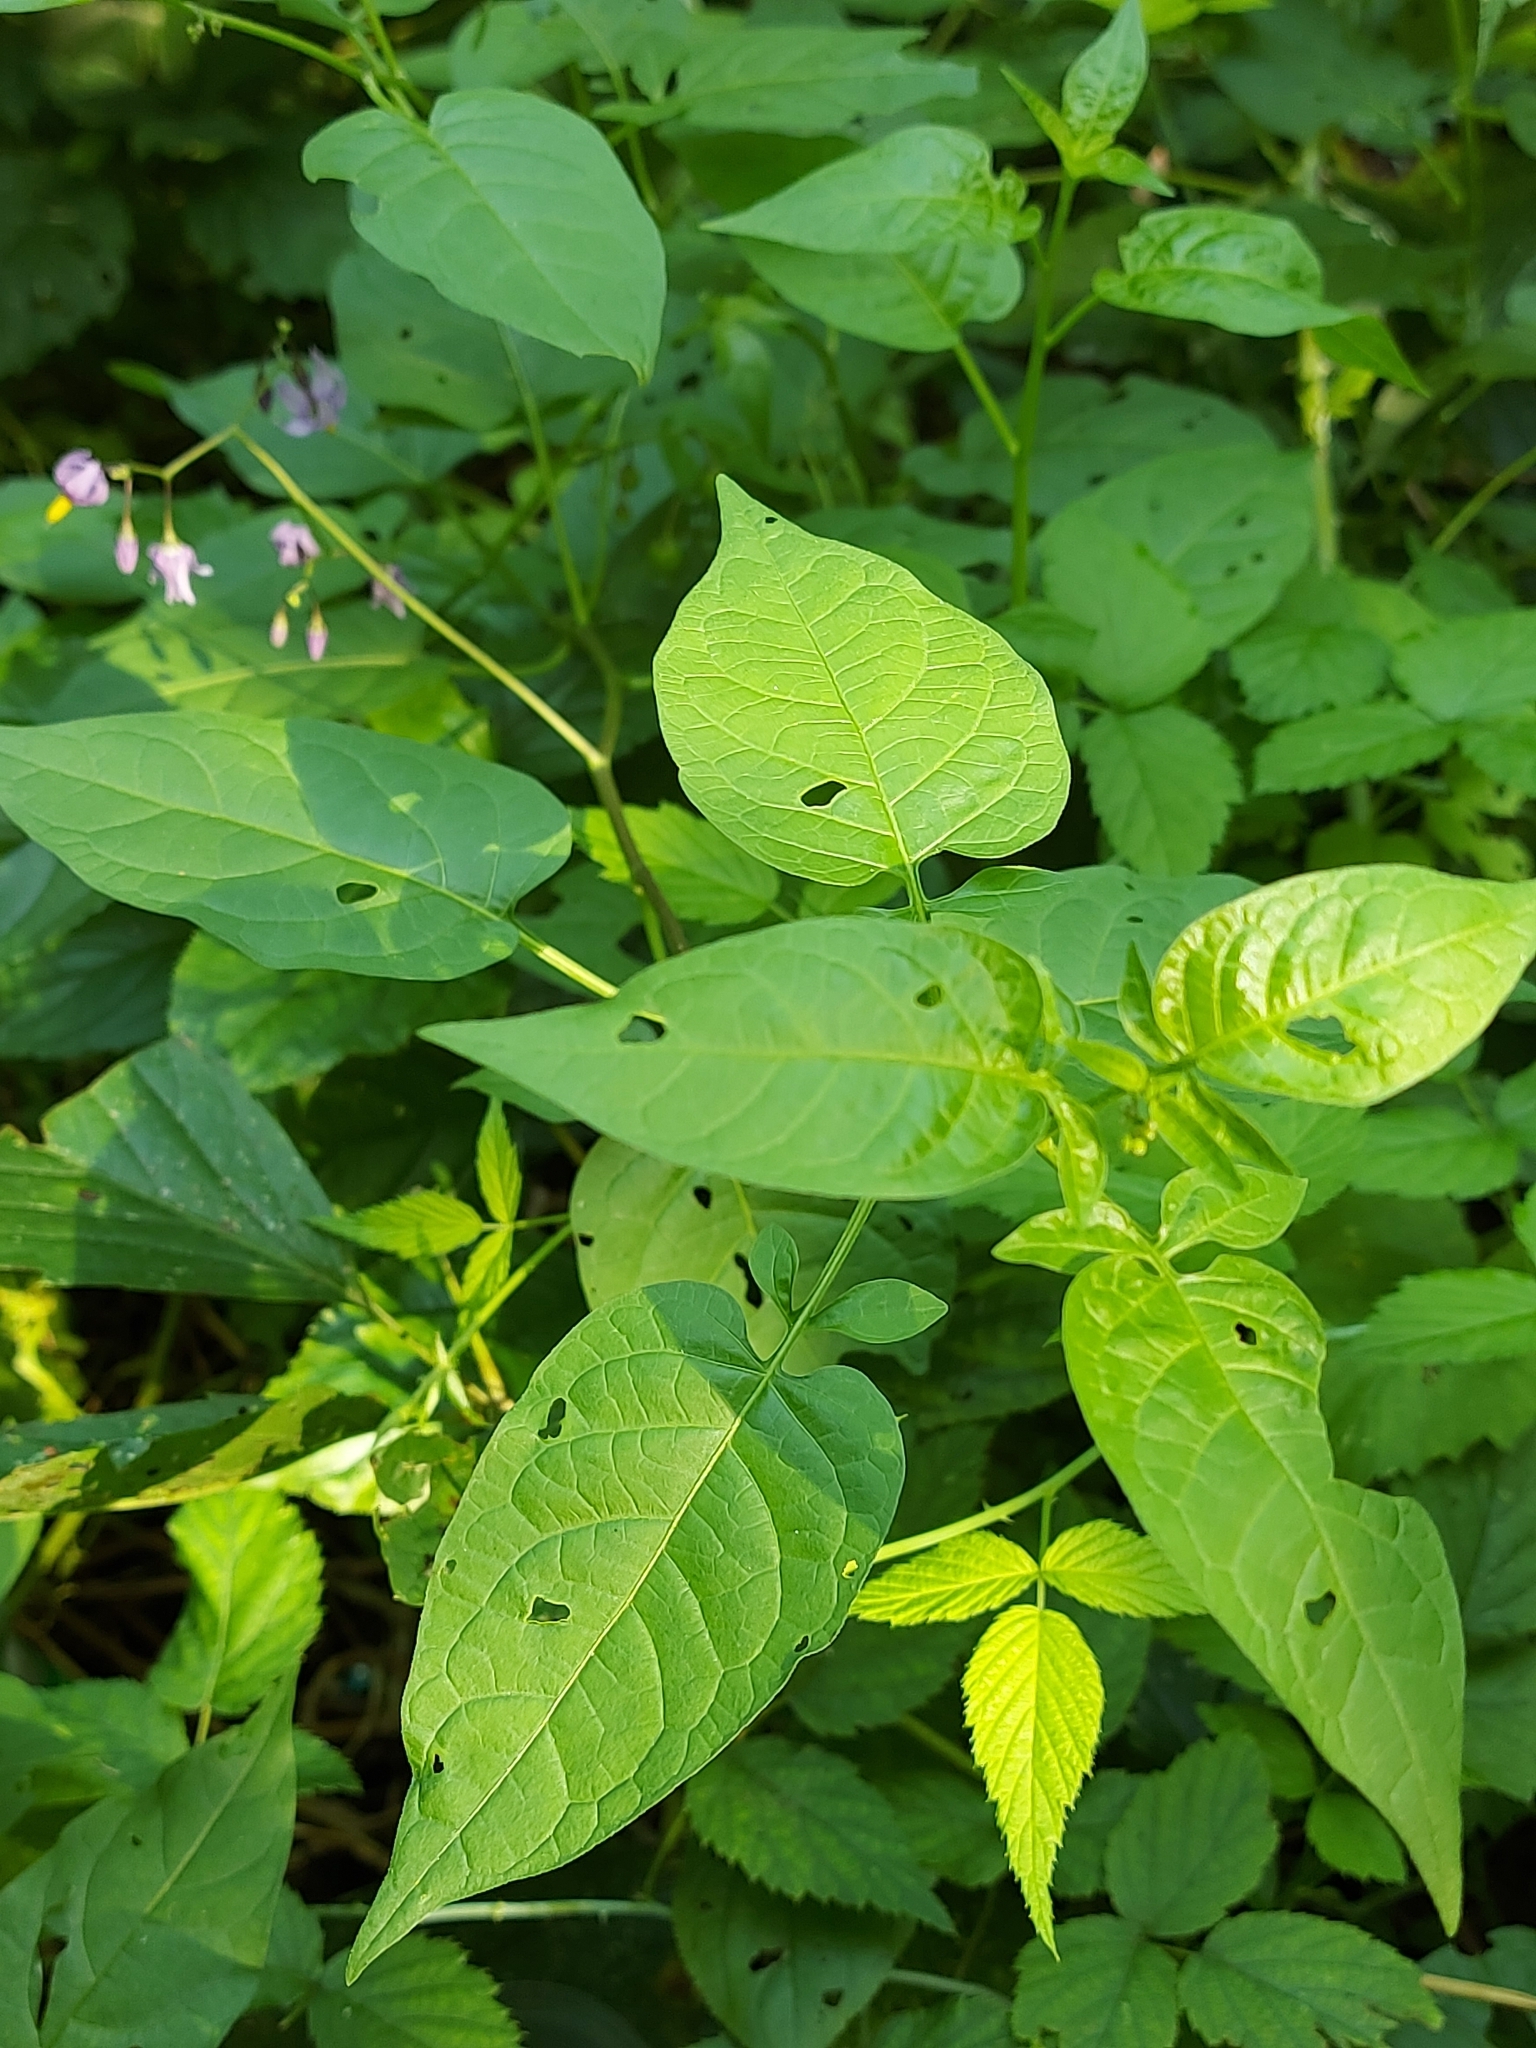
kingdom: Plantae
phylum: Tracheophyta
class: Magnoliopsida
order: Solanales
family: Solanaceae
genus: Solanum
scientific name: Solanum dulcamara
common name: Climbing nightshade
